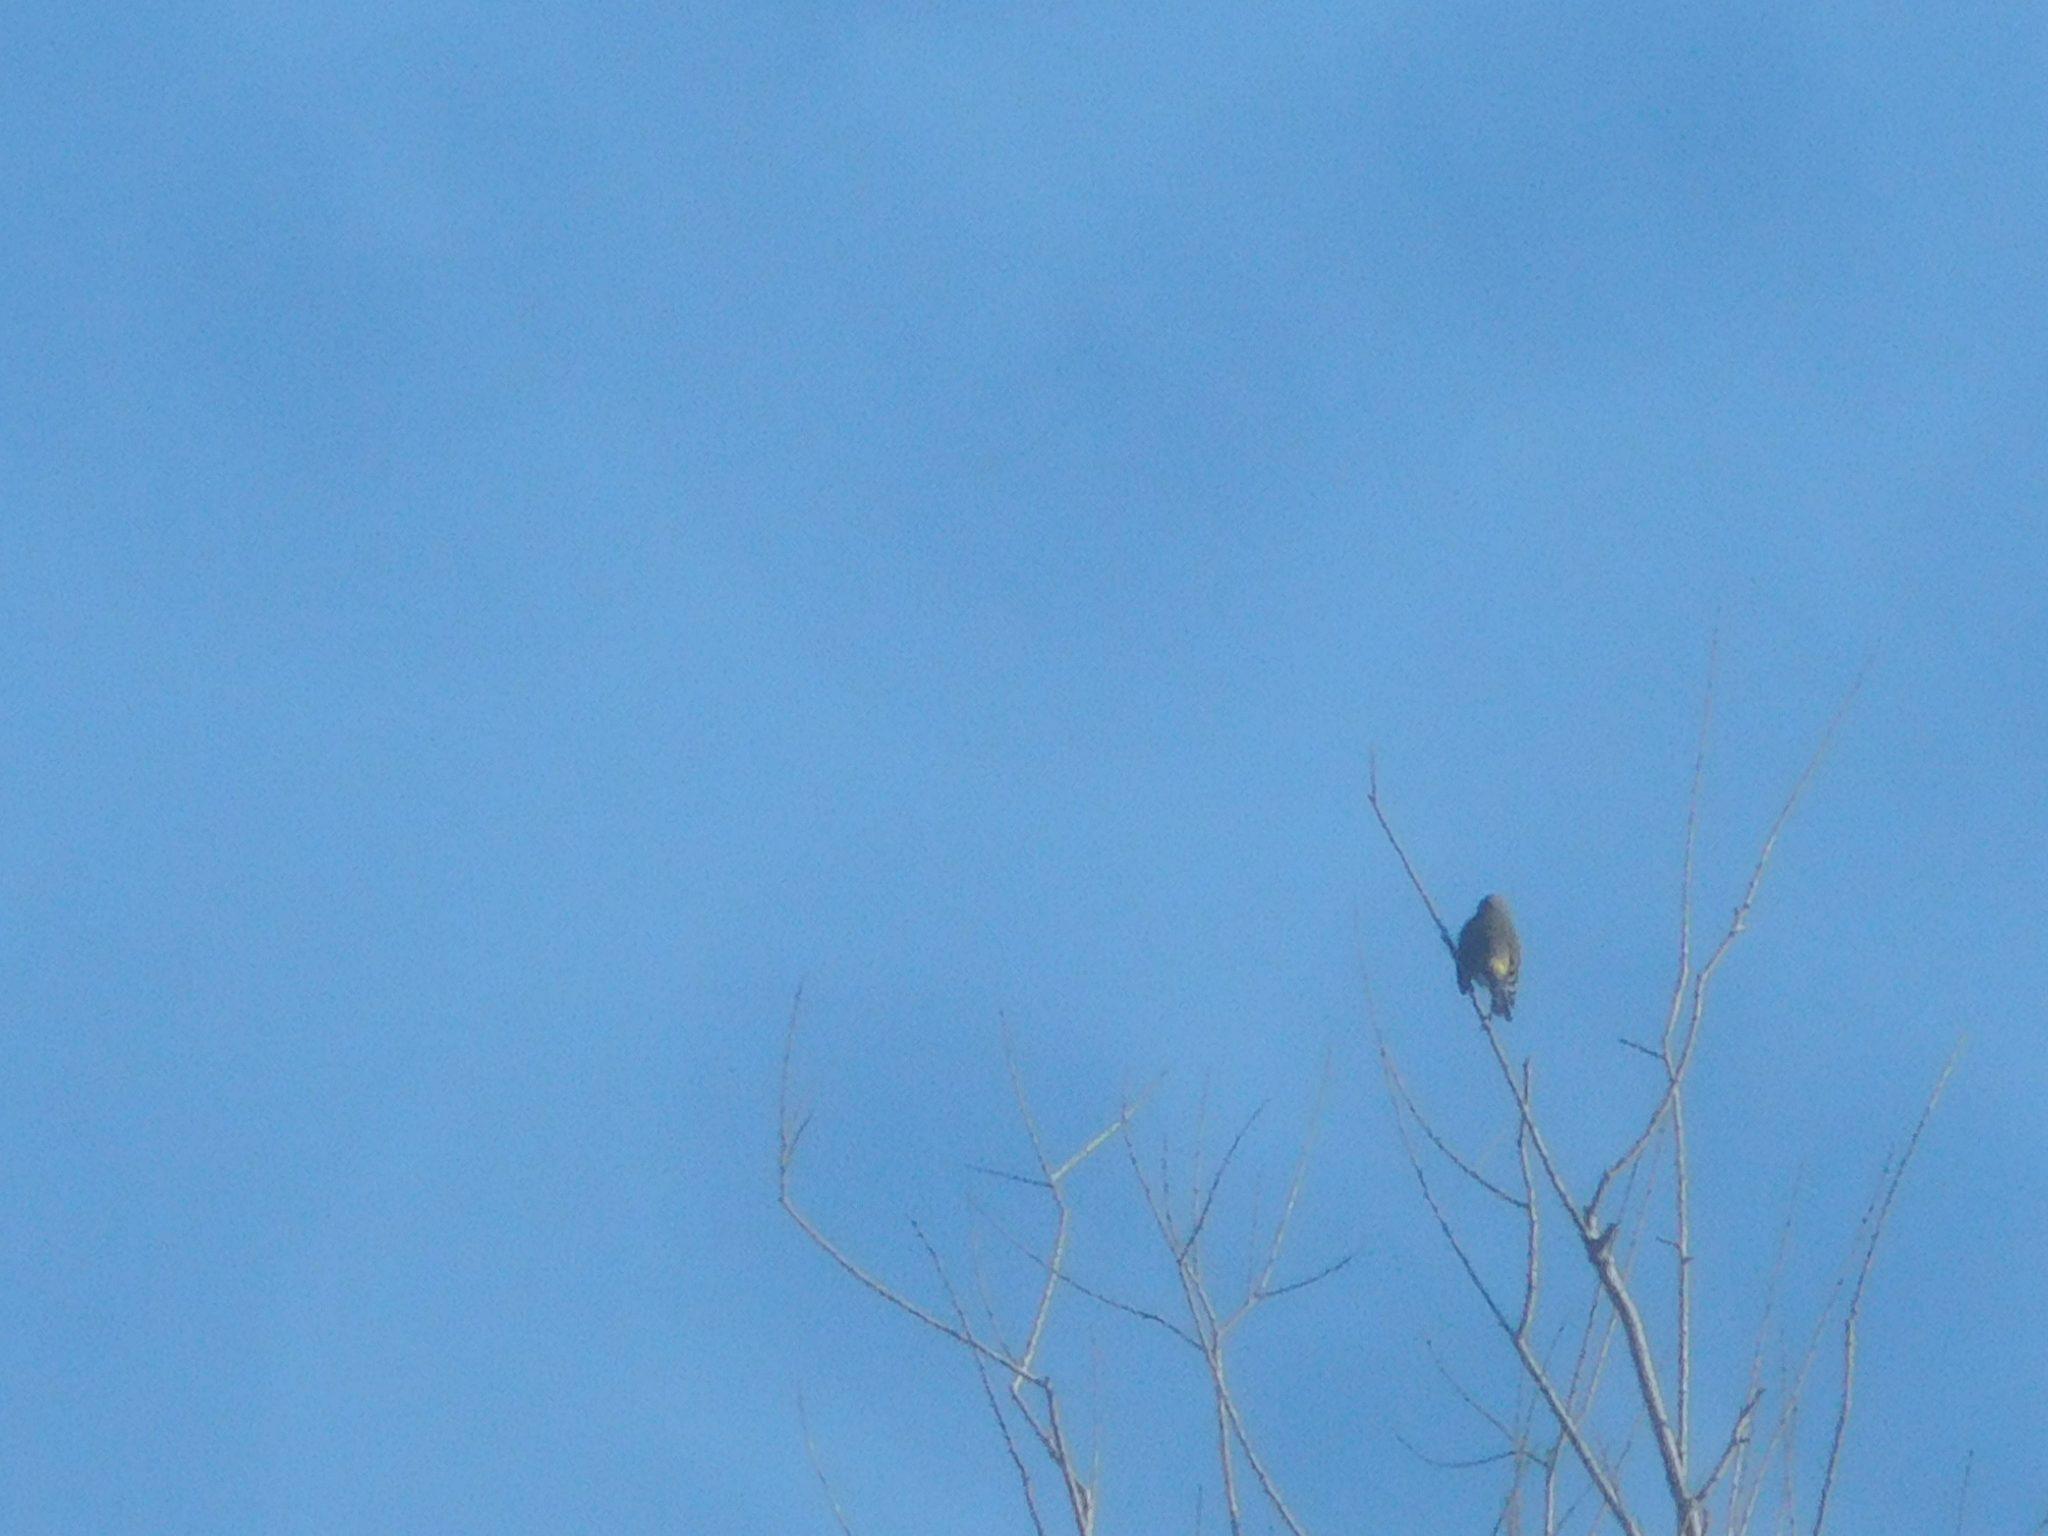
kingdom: Animalia
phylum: Chordata
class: Aves
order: Passeriformes
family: Parulidae
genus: Setophaga
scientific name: Setophaga coronata
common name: Myrtle warbler
